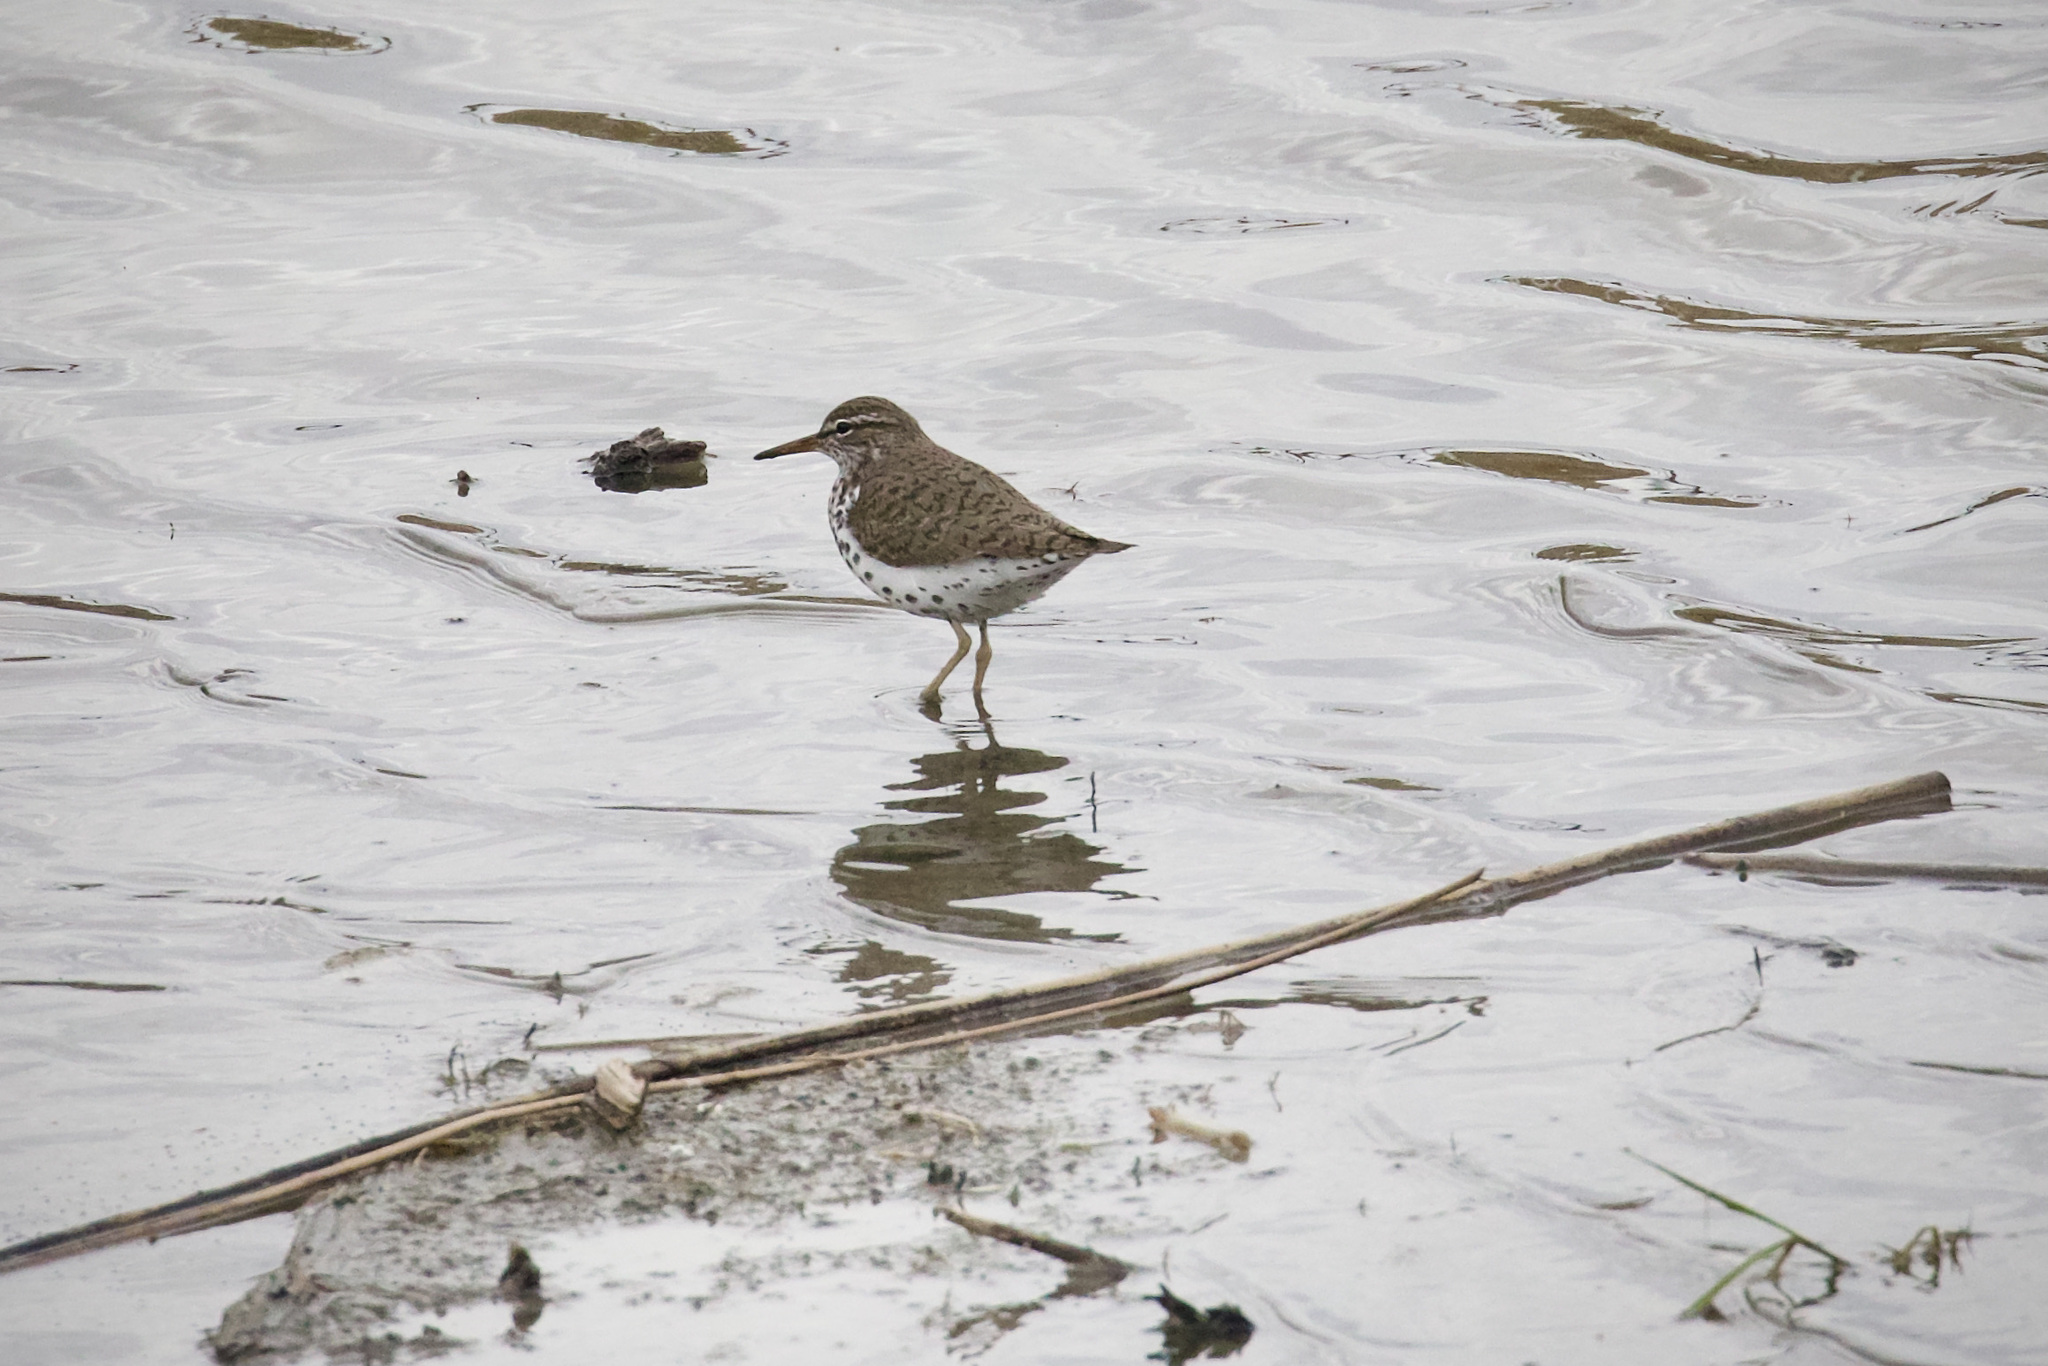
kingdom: Animalia
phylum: Chordata
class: Aves
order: Charadriiformes
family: Scolopacidae
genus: Actitis
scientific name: Actitis macularius
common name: Spotted sandpiper
